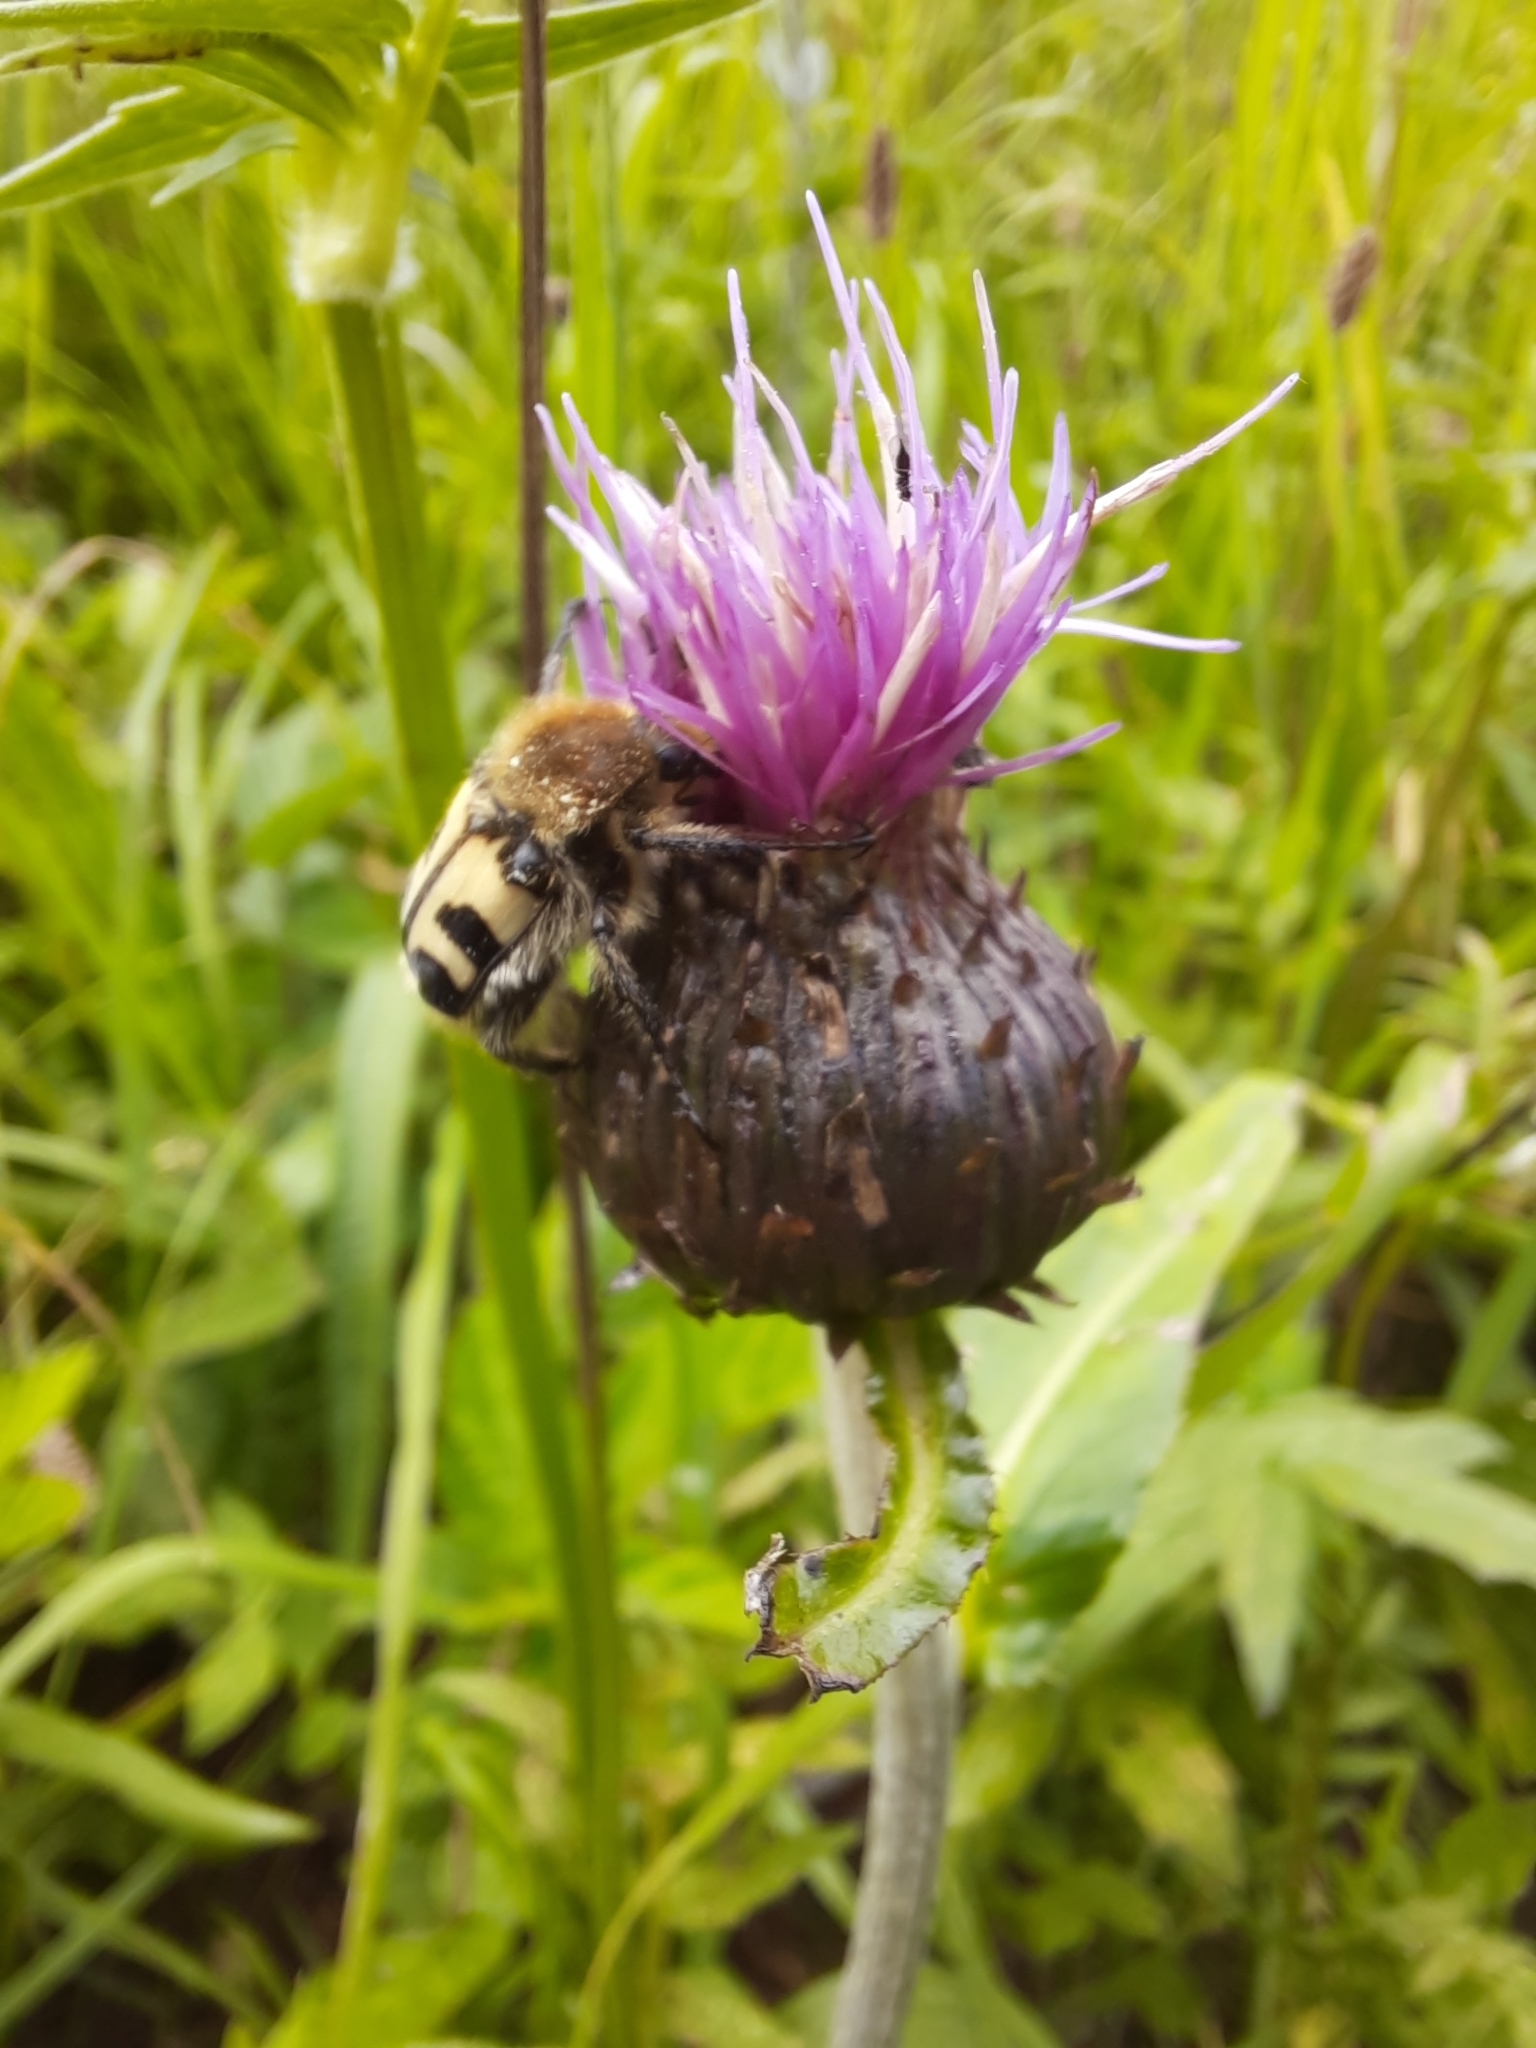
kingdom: Animalia
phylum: Arthropoda
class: Insecta
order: Coleoptera
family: Scarabaeidae
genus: Trichius
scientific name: Trichius fasciatus
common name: Bee beetle
